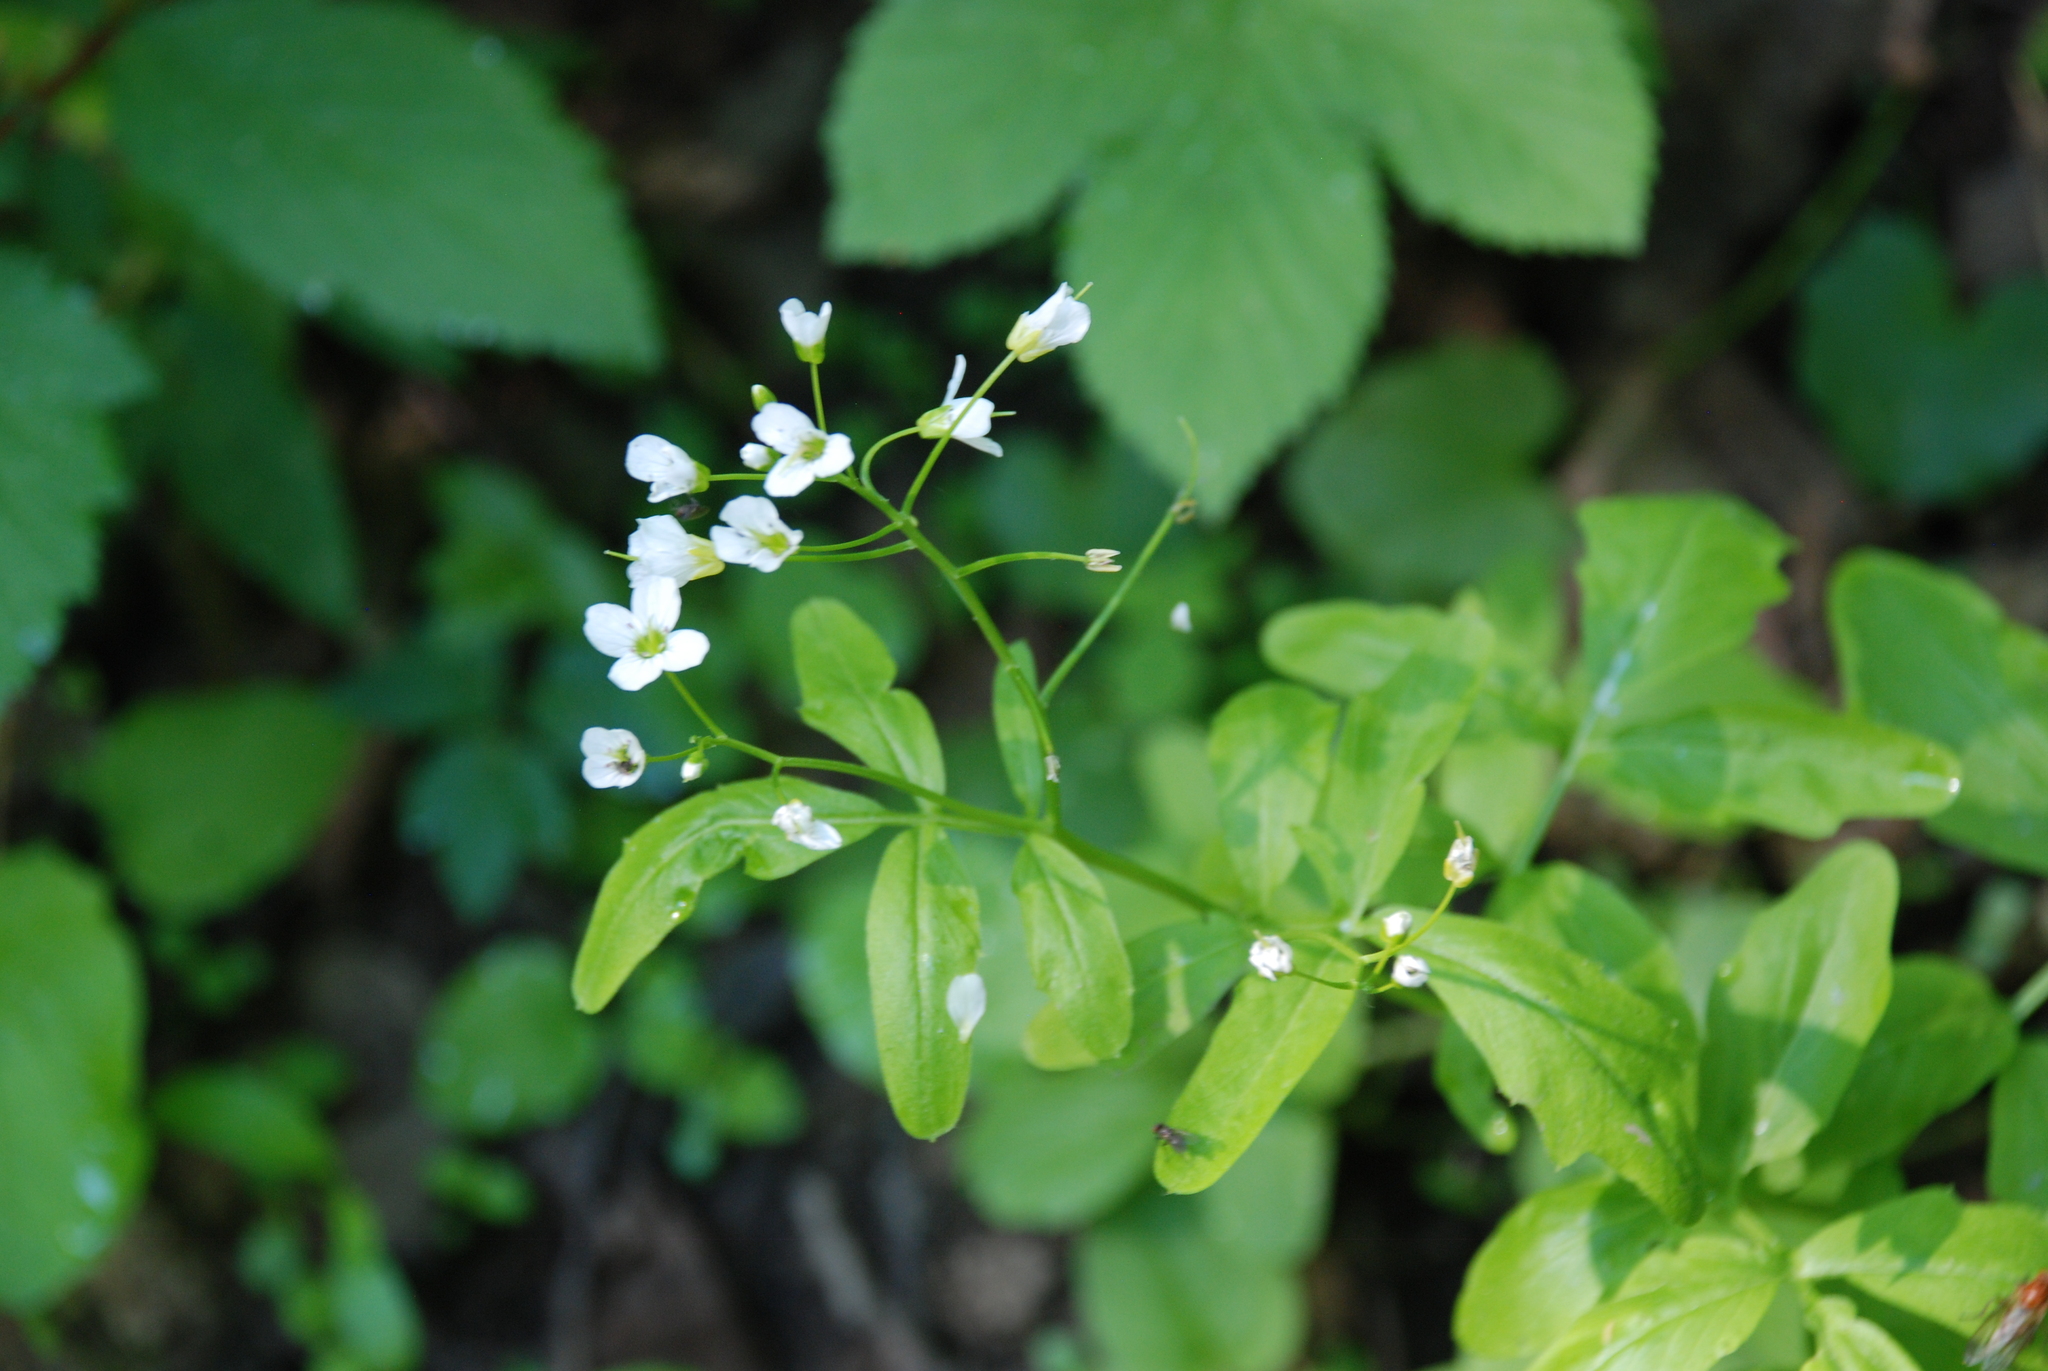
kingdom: Plantae
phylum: Tracheophyta
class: Magnoliopsida
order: Brassicales
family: Brassicaceae
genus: Cardamine
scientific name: Cardamine amara
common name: Large bitter-cress
